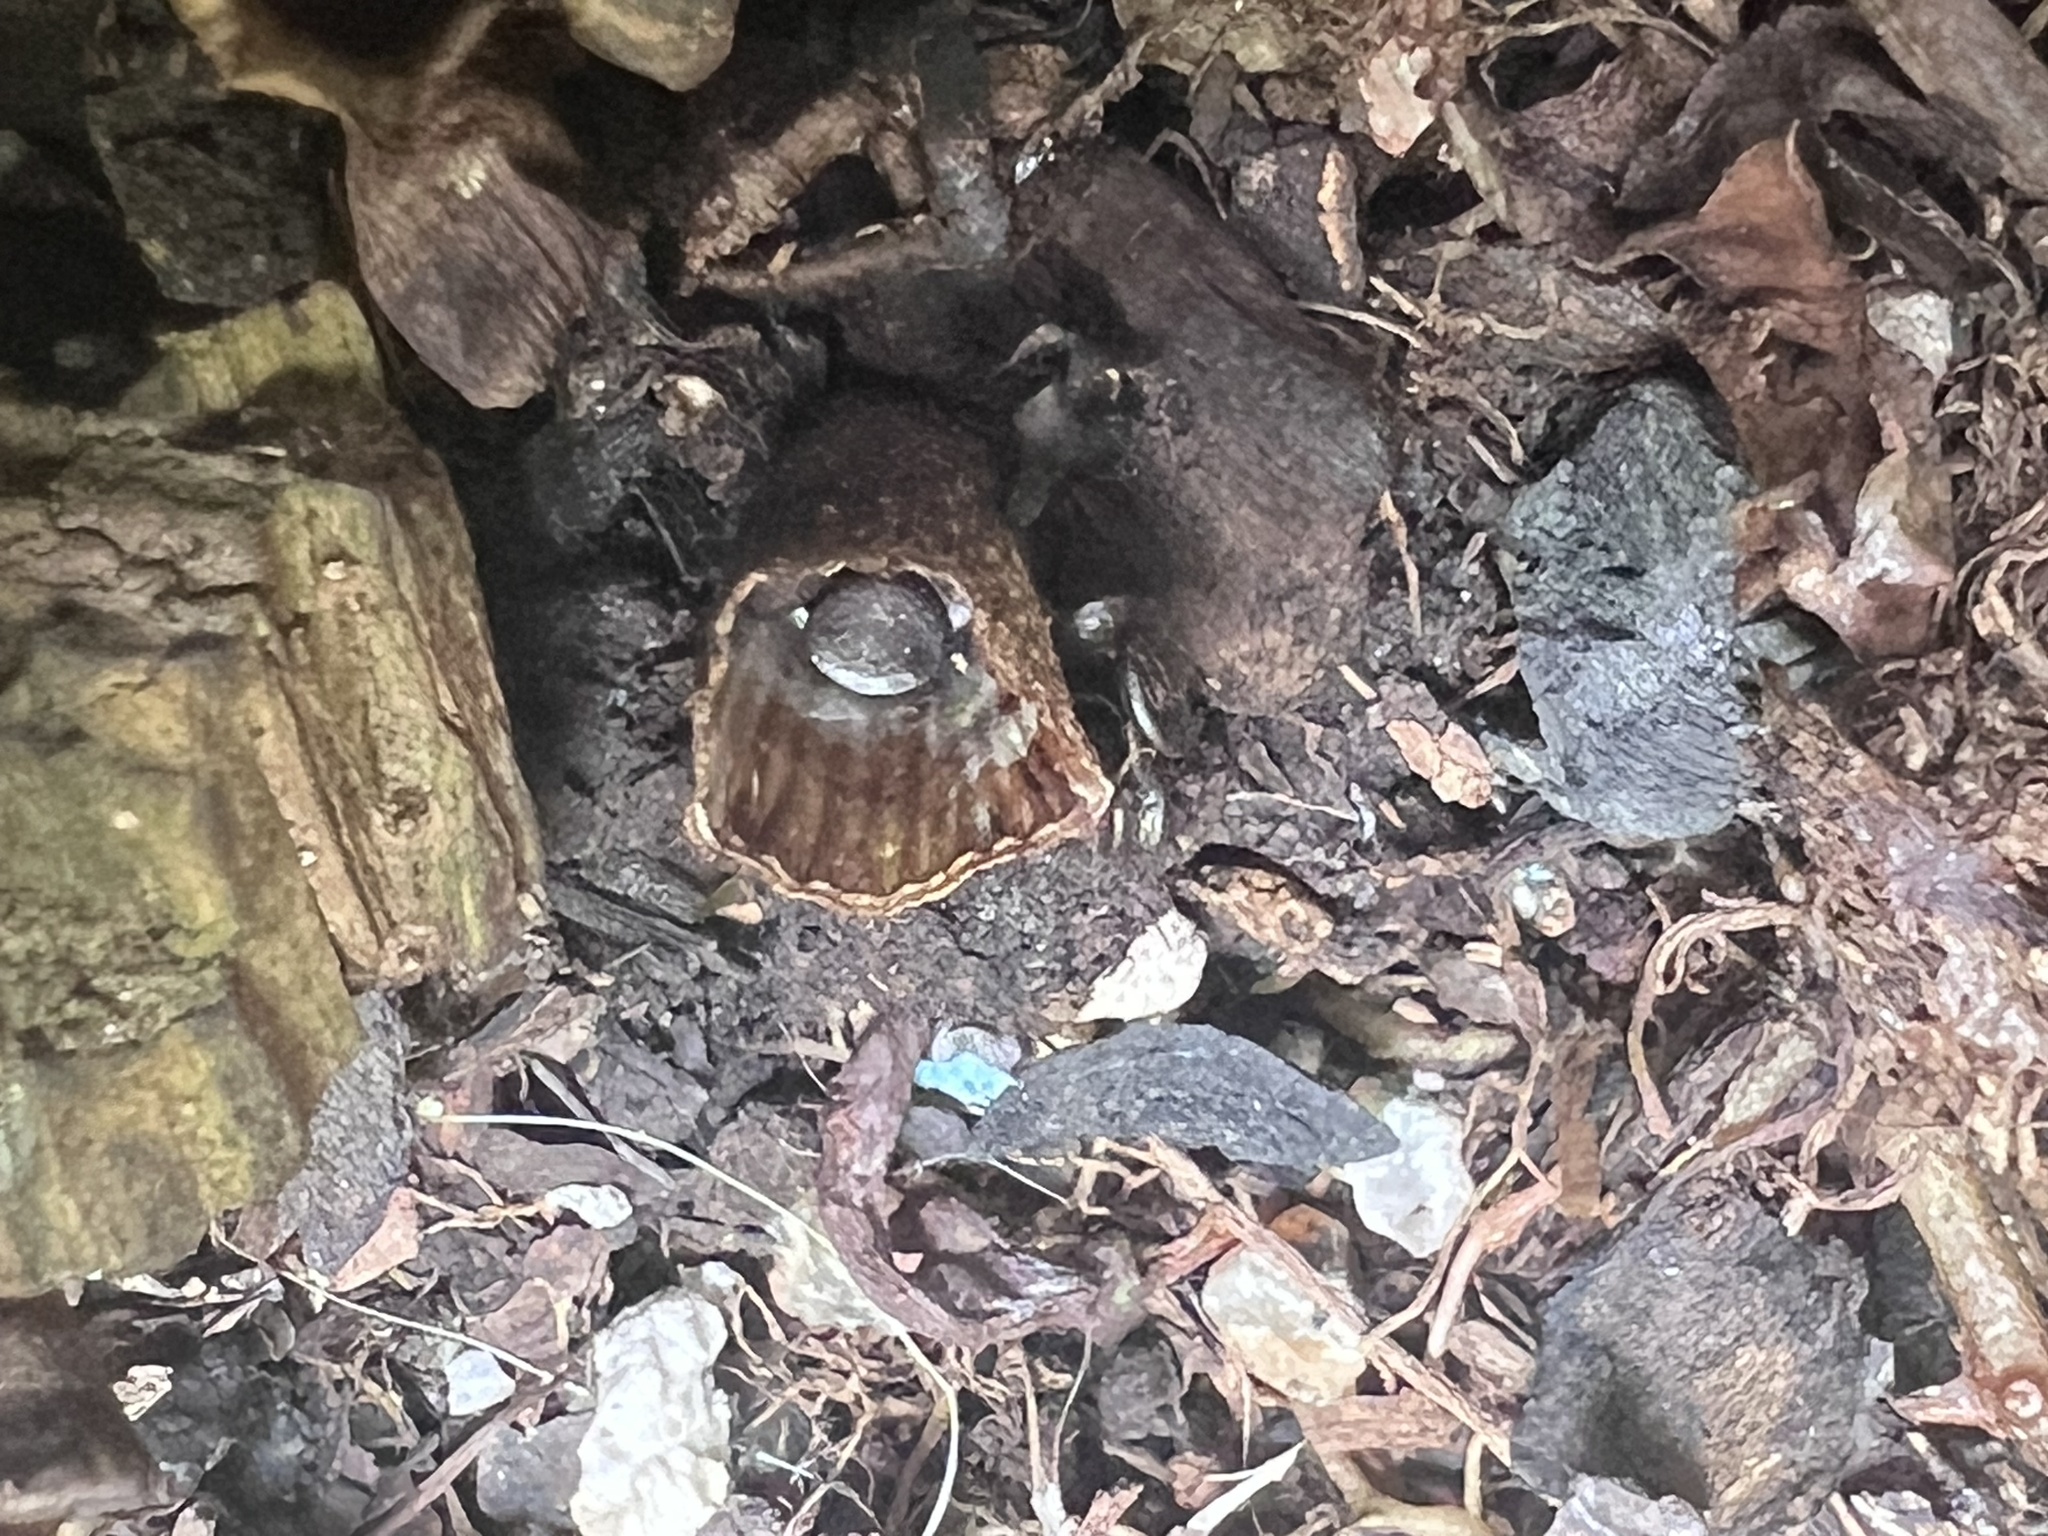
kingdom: Fungi
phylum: Basidiomycota
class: Agaricomycetes
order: Agaricales
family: Agaricaceae
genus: Cyathus
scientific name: Cyathus striatus
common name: Fluted bird's nest
